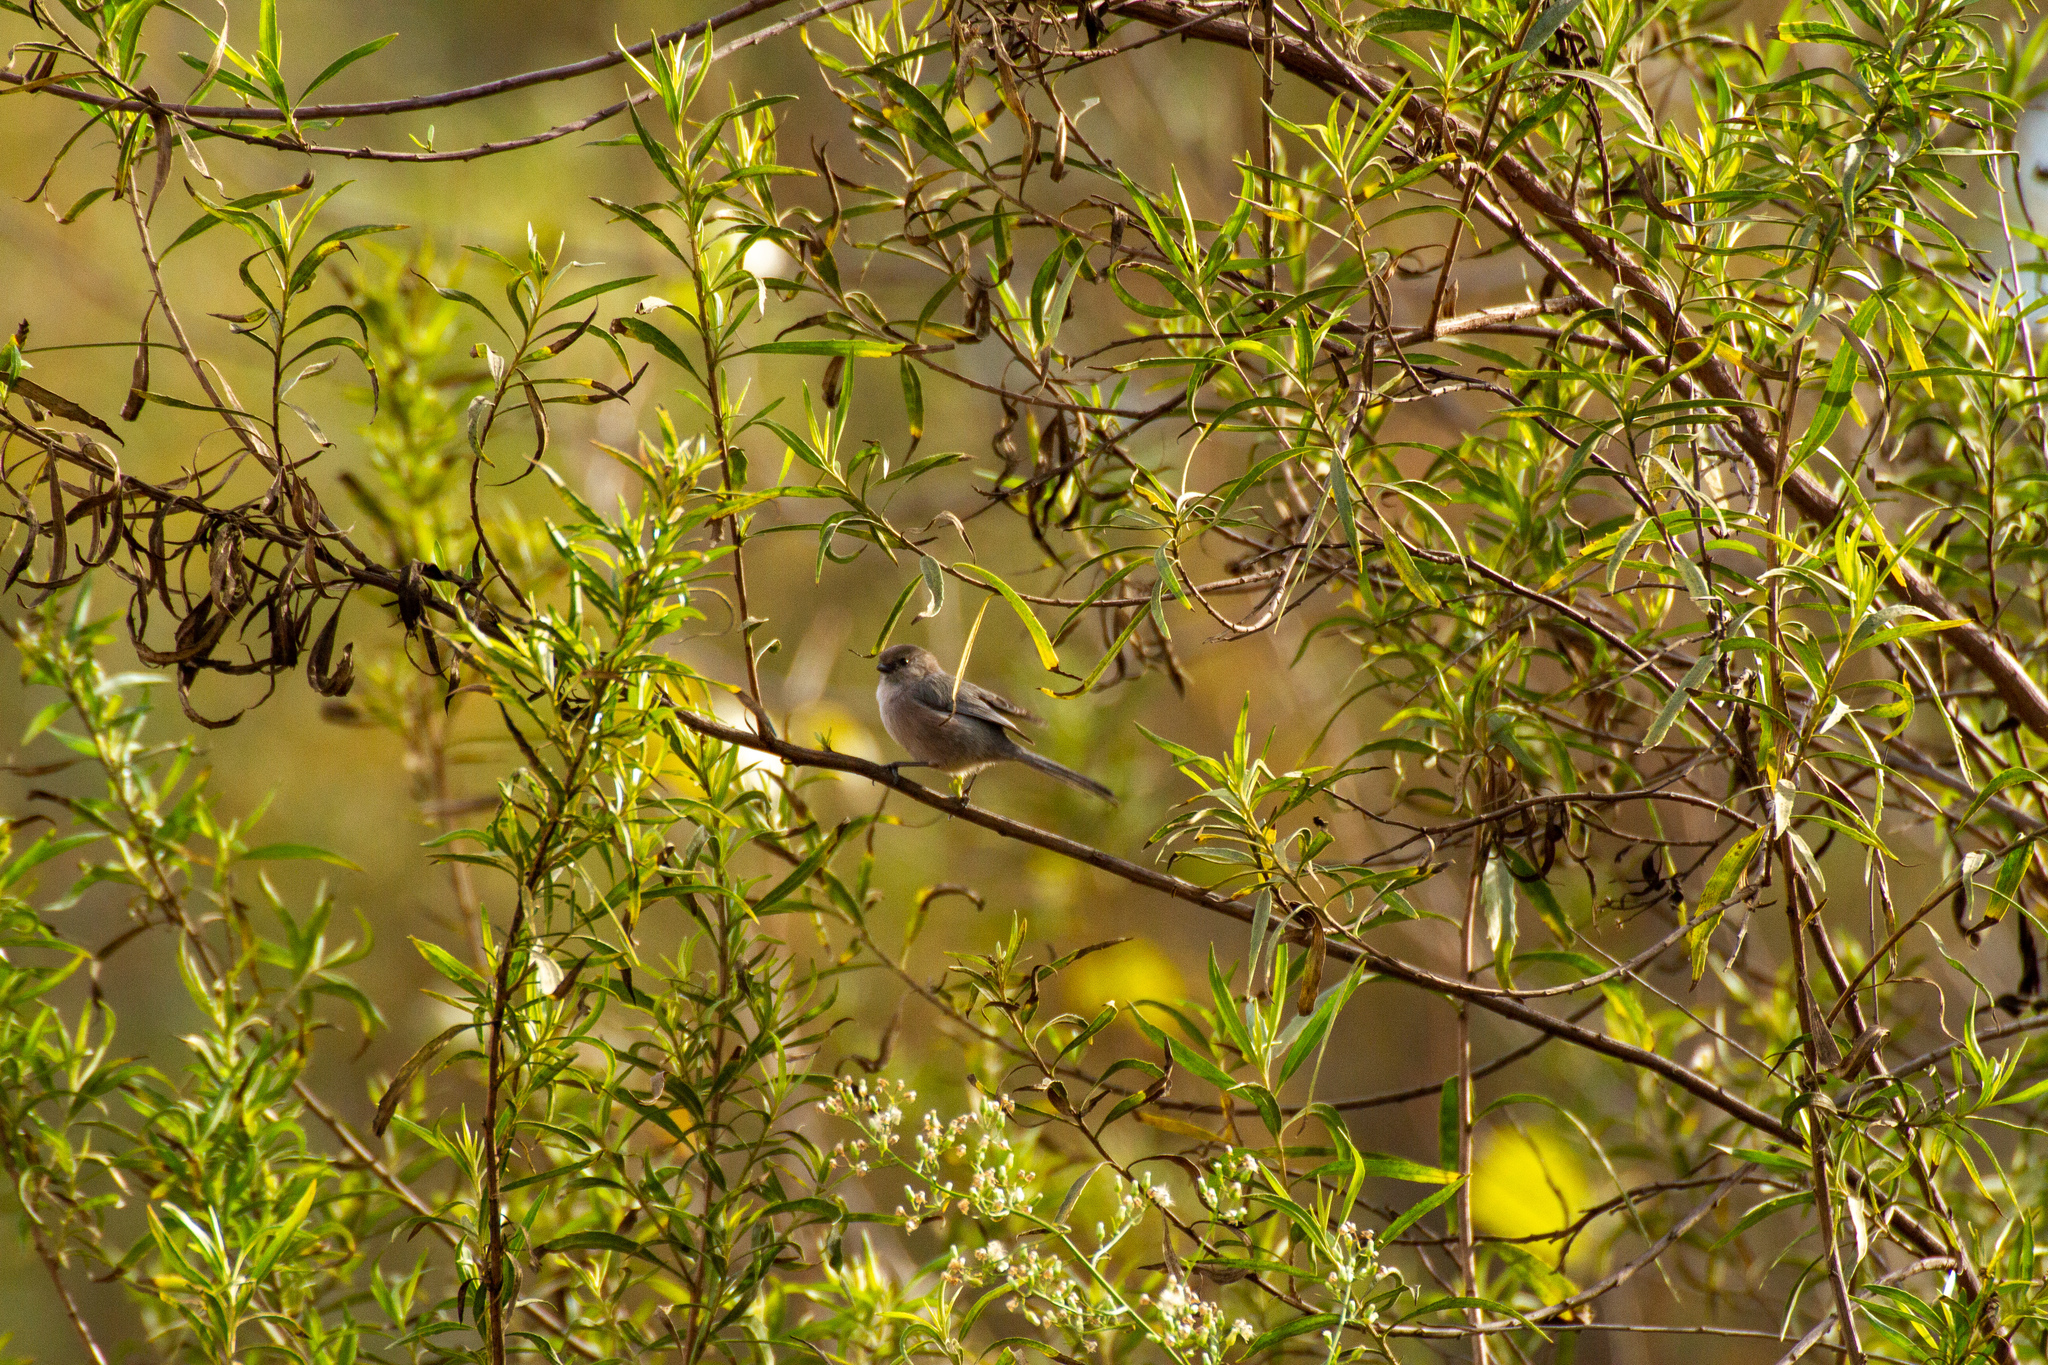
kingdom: Animalia
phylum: Chordata
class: Aves
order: Passeriformes
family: Aegithalidae
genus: Psaltriparus
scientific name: Psaltriparus minimus
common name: American bushtit
